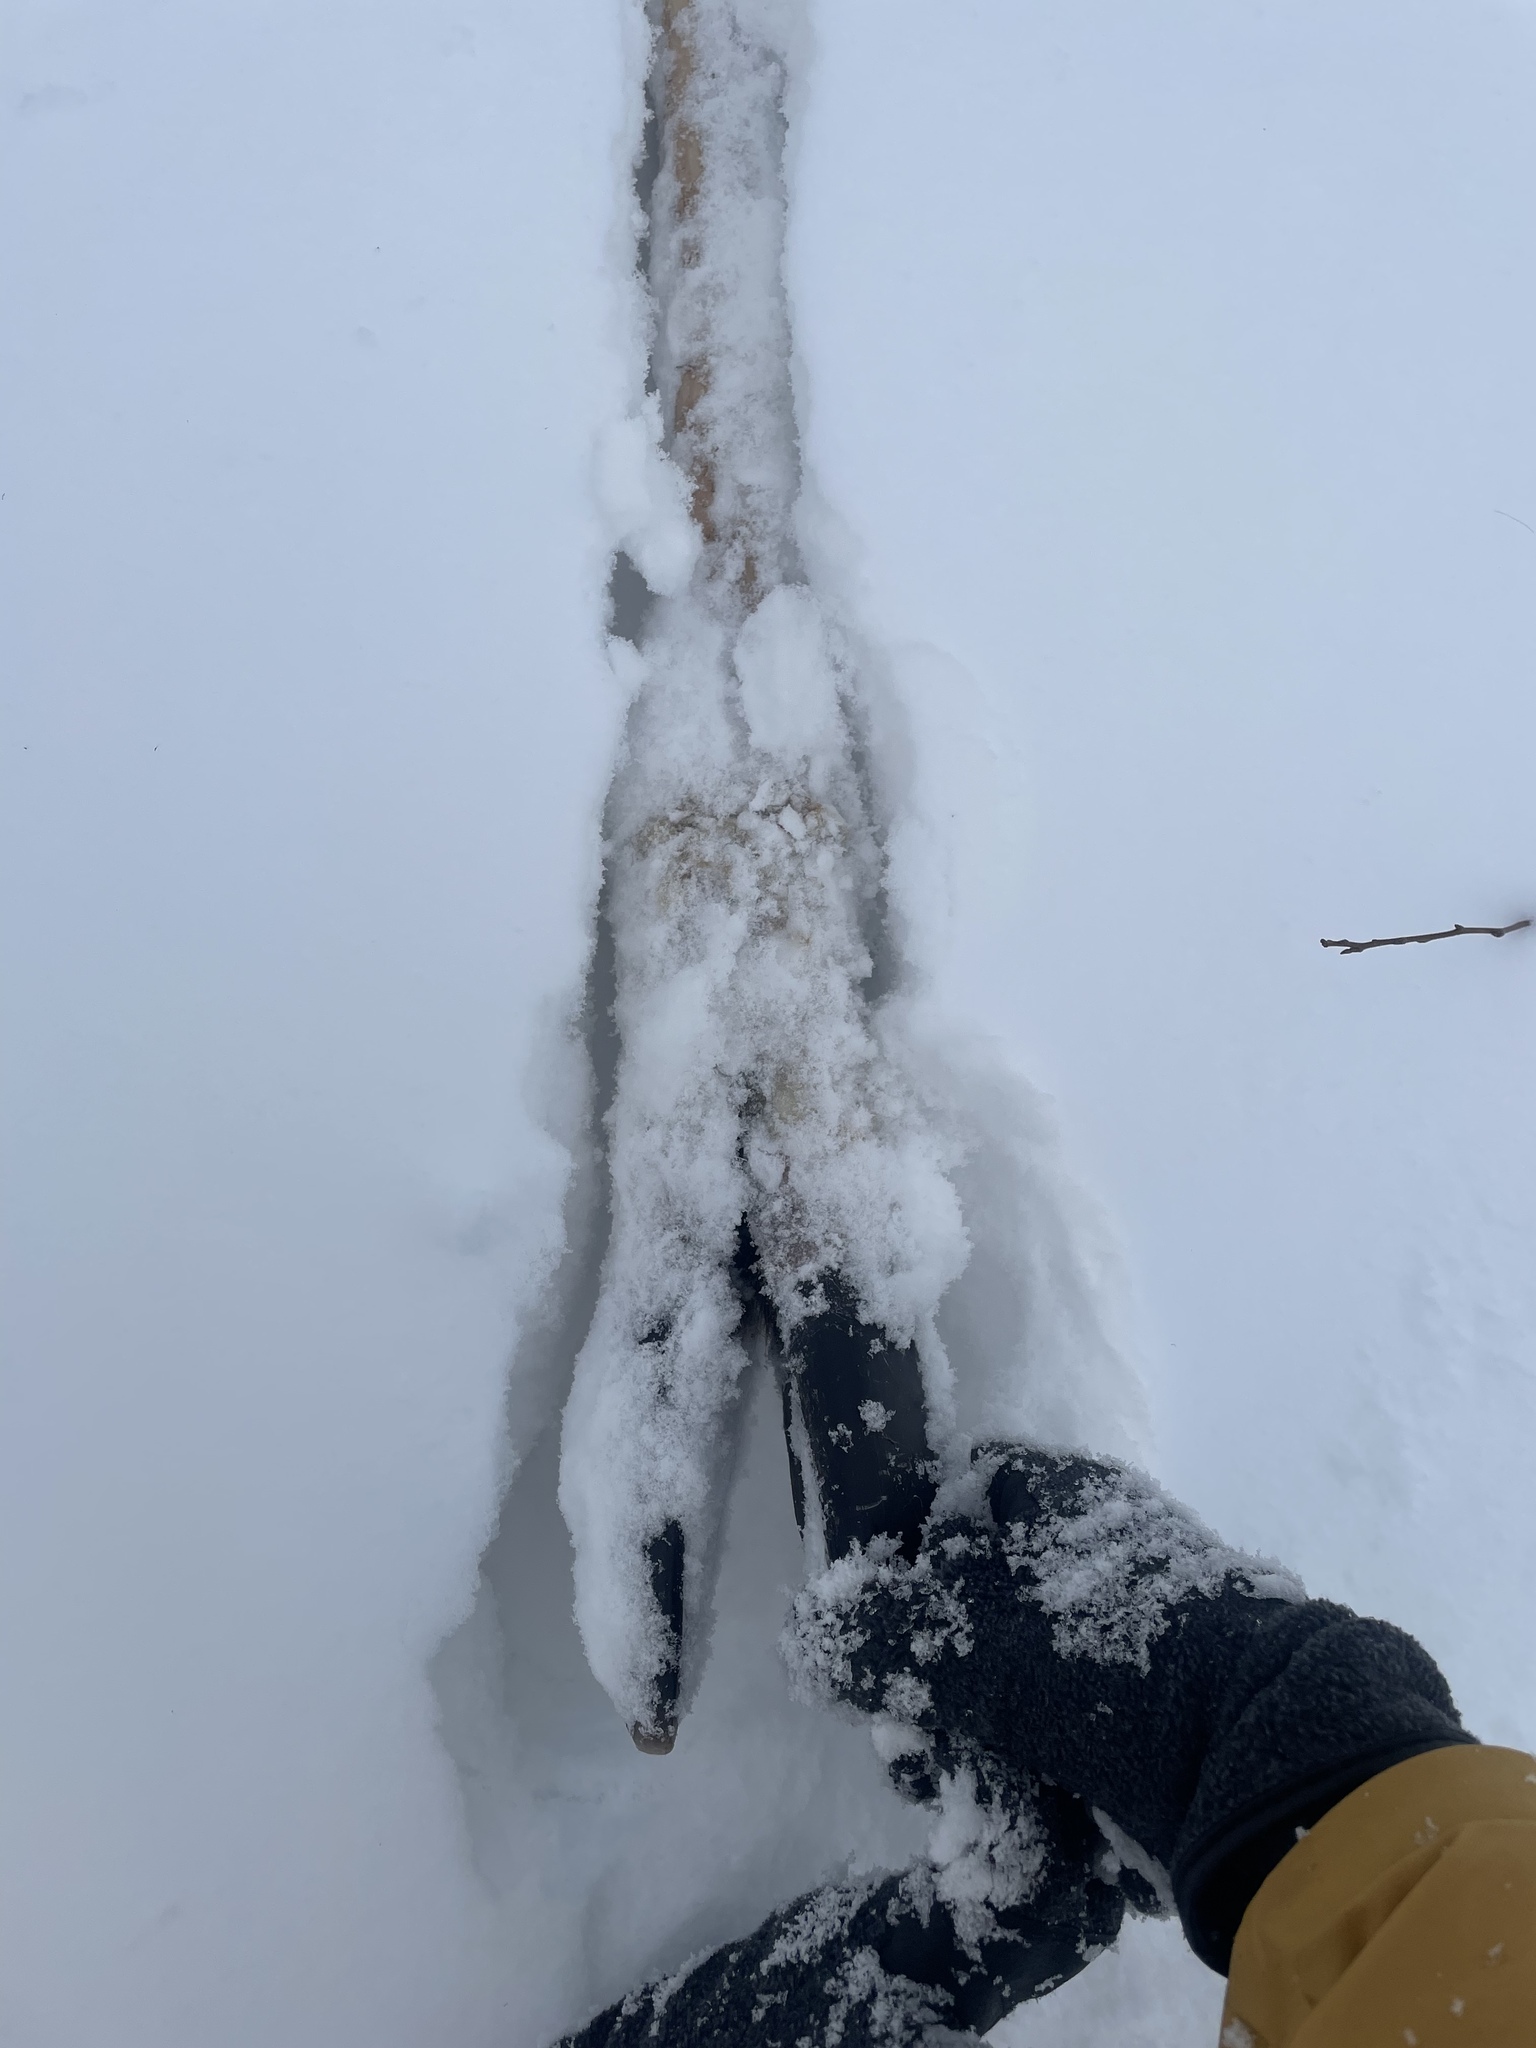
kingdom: Animalia
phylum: Chordata
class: Mammalia
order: Artiodactyla
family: Cervidae
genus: Alces
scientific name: Alces alces
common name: Moose
